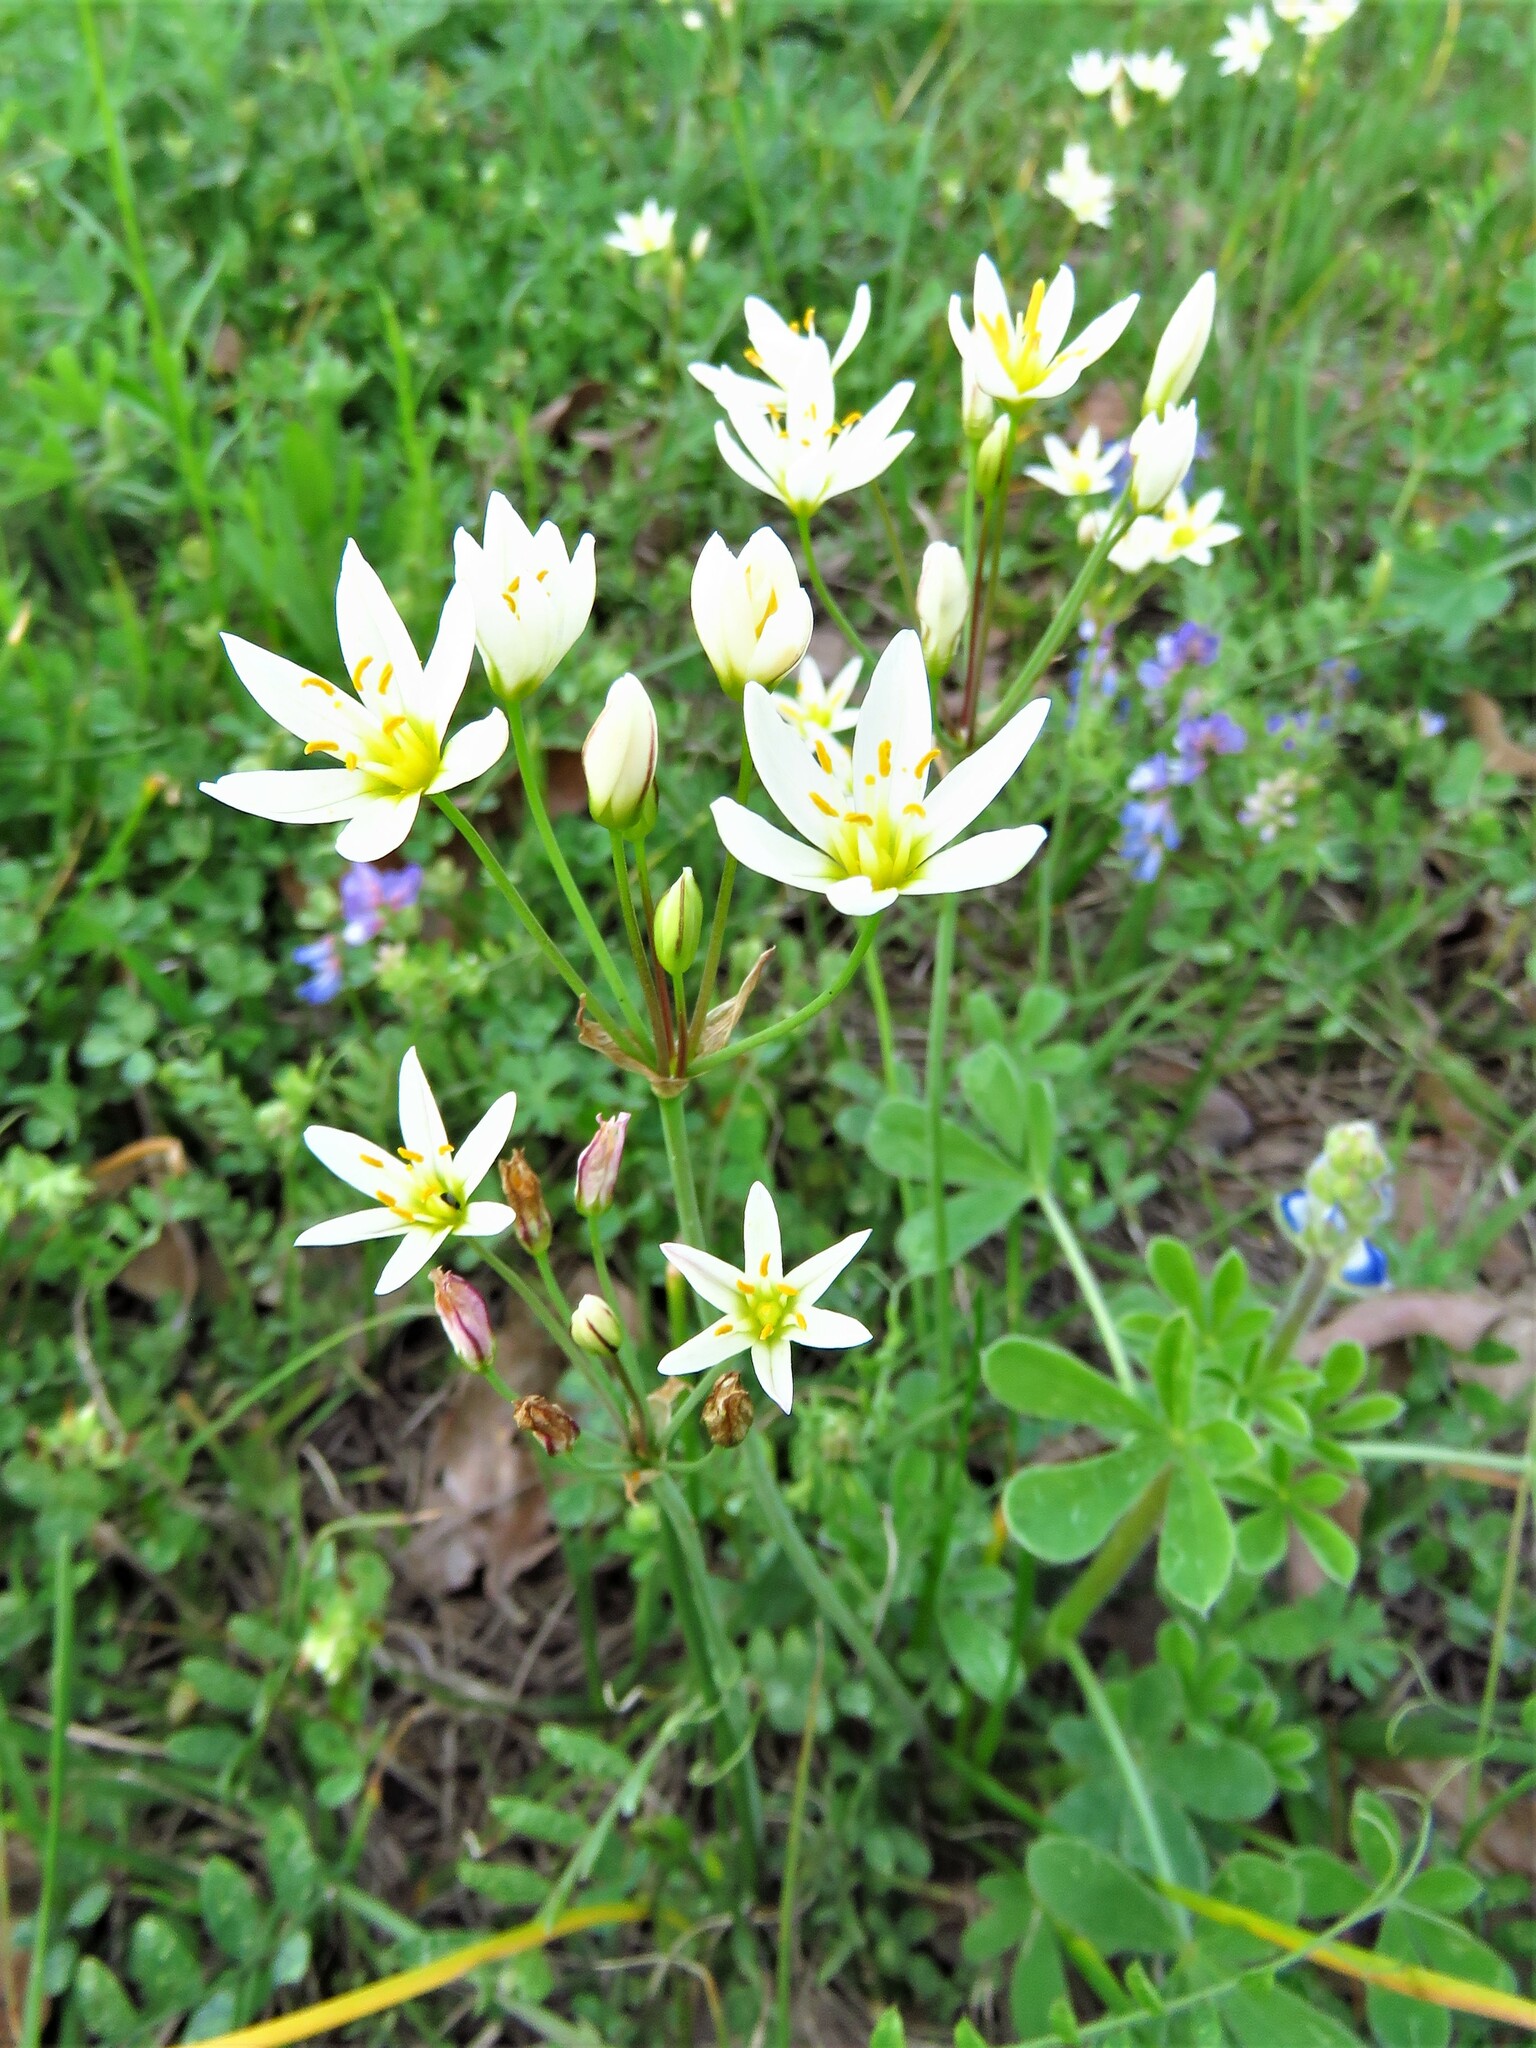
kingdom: Plantae
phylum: Tracheophyta
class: Liliopsida
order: Asparagales
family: Amaryllidaceae
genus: Nothoscordum
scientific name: Nothoscordum bivalve
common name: Crow-poison
